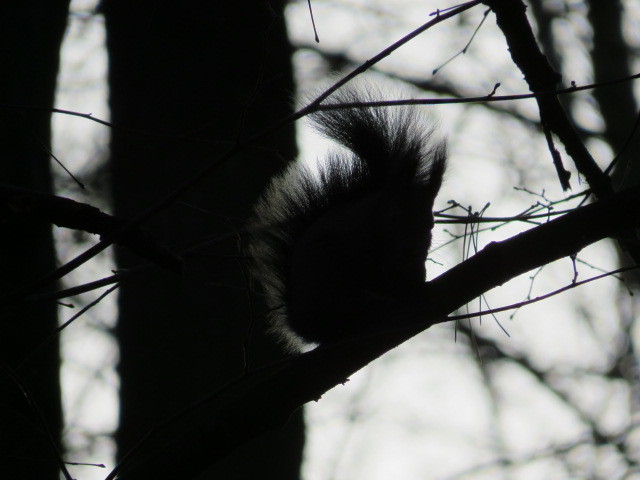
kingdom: Animalia
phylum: Chordata
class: Mammalia
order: Rodentia
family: Sciuridae
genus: Sciurus
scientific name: Sciurus vulgaris
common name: Eurasian red squirrel
